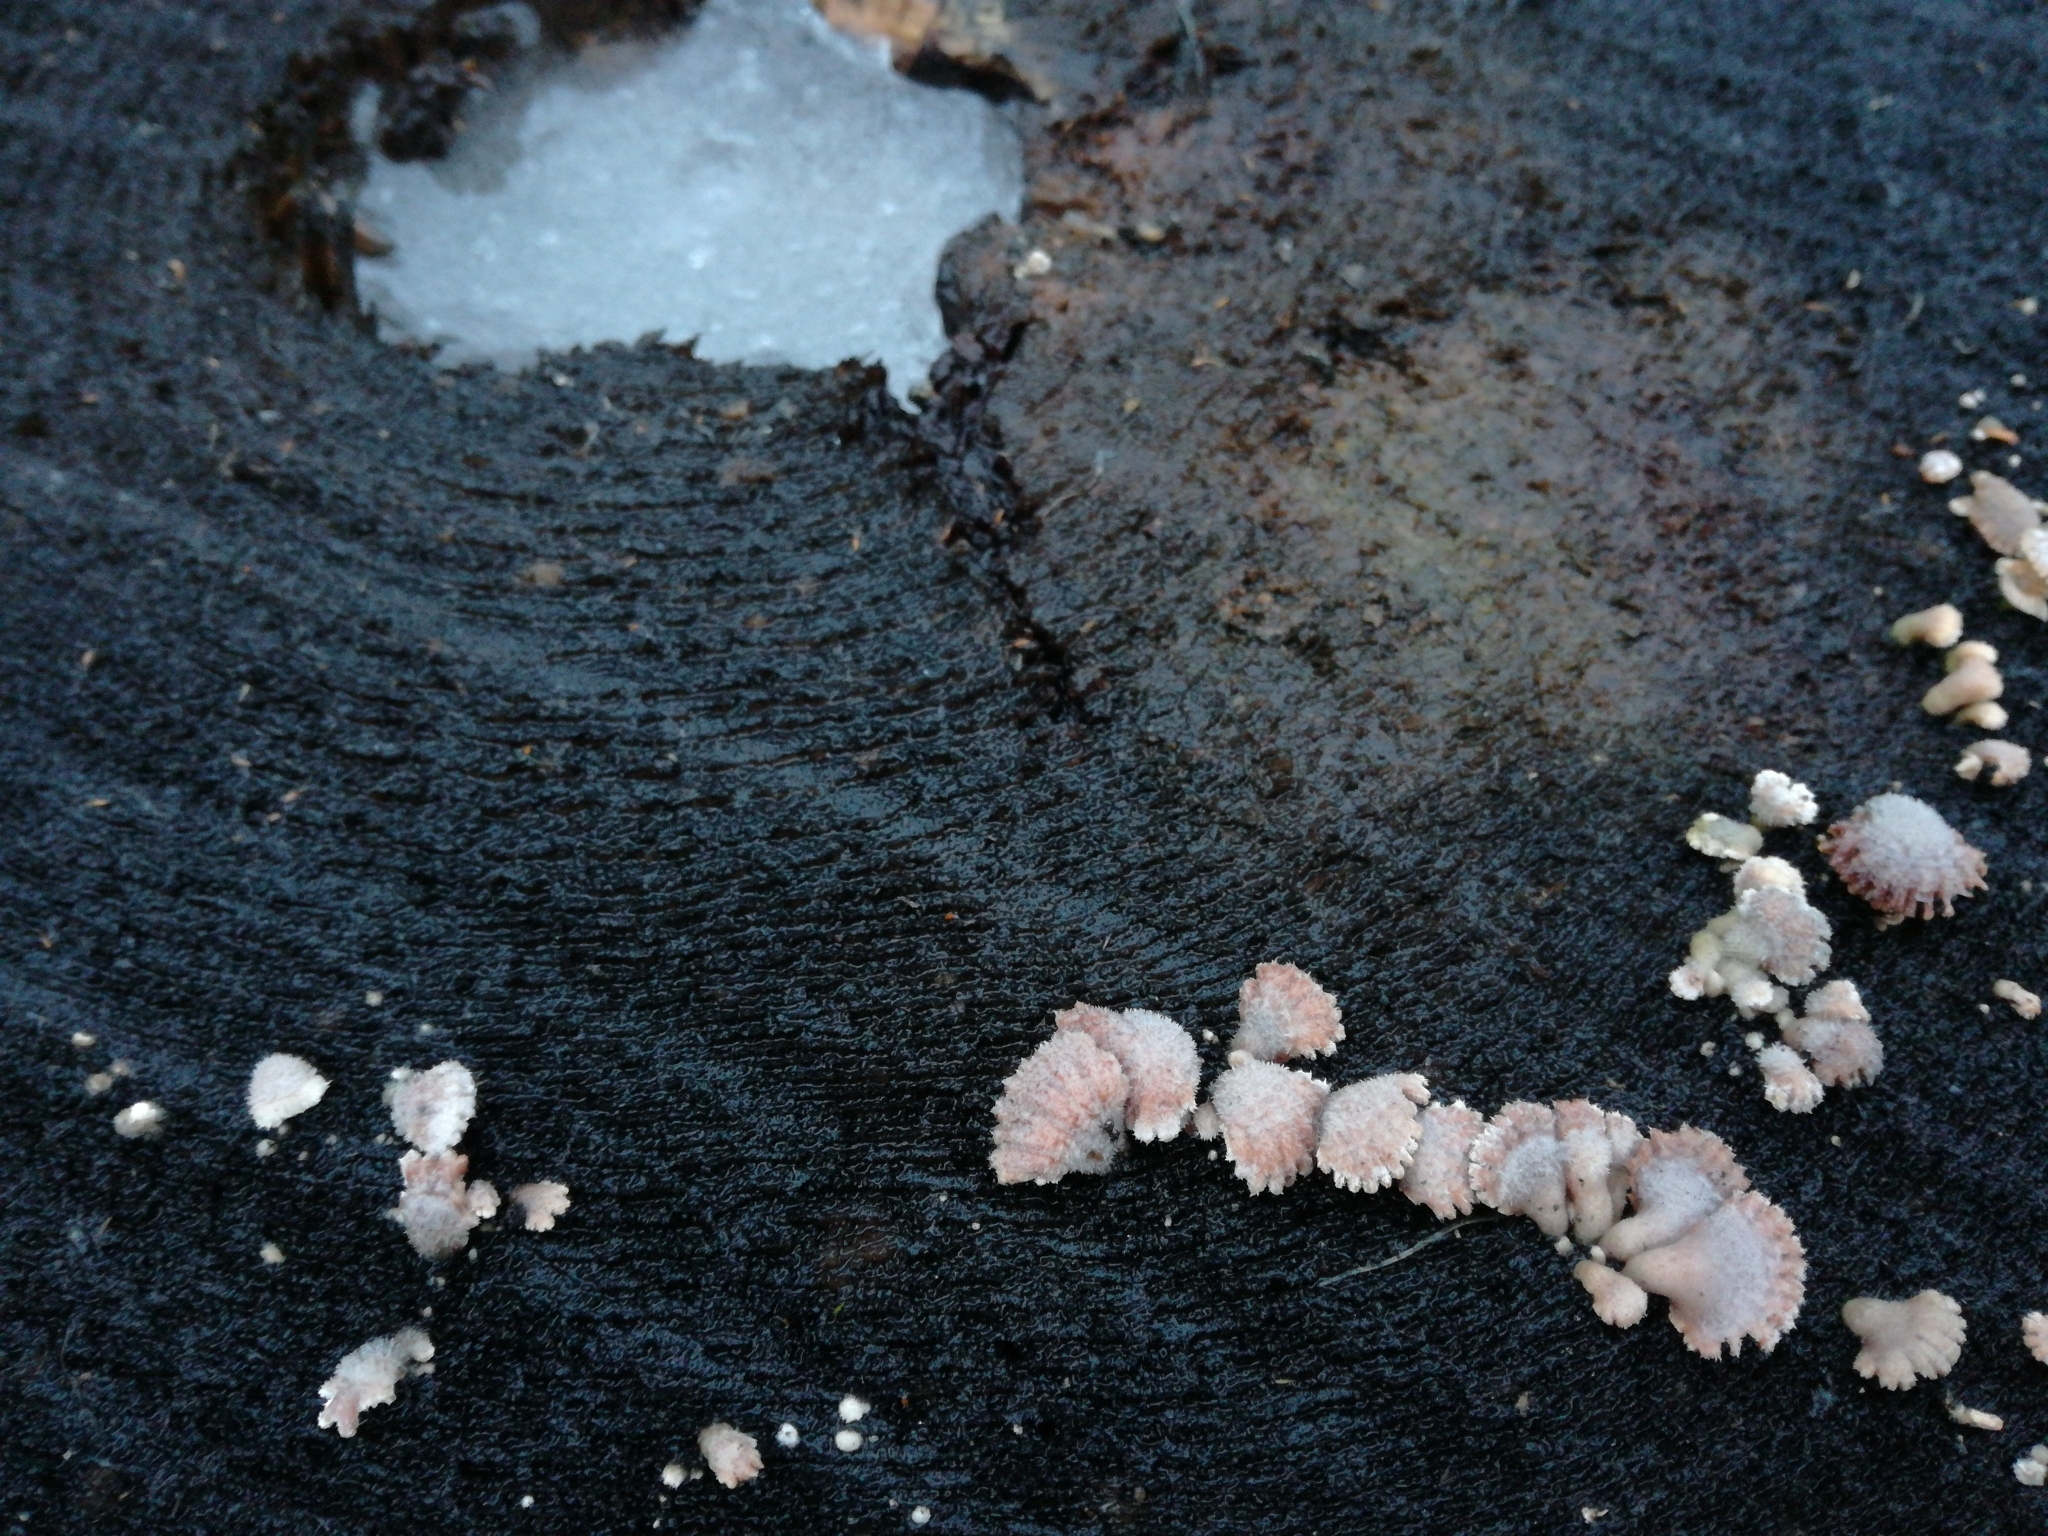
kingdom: Fungi
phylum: Basidiomycota
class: Agaricomycetes
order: Agaricales
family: Schizophyllaceae
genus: Schizophyllum
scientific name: Schizophyllum commune
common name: Common porecrust
